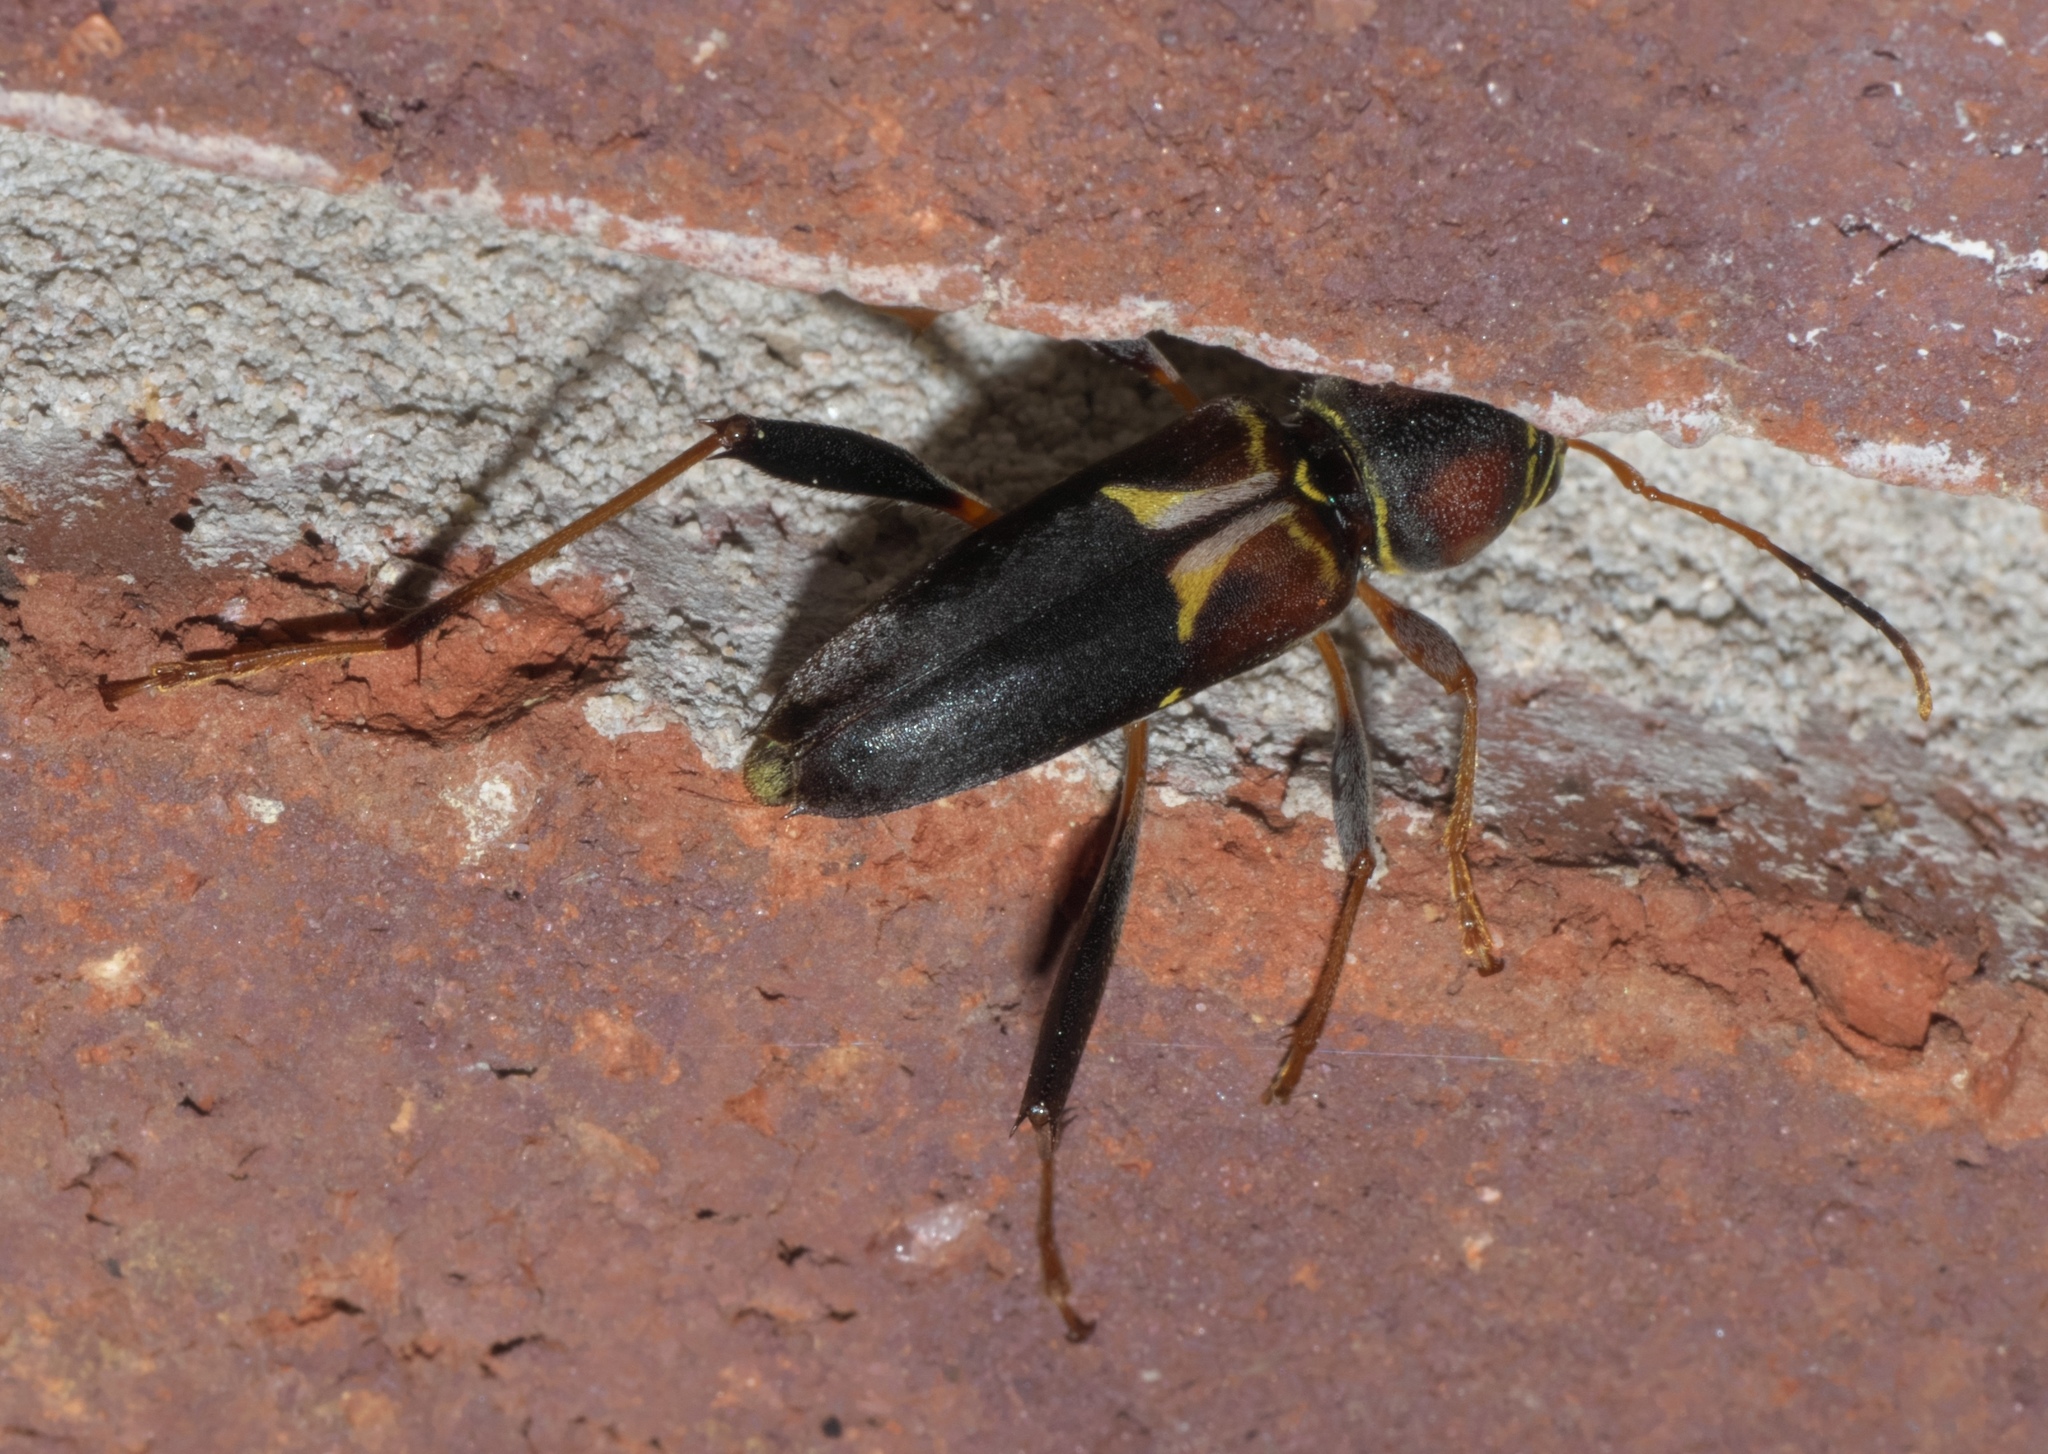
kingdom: Animalia
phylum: Arthropoda
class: Insecta
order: Coleoptera
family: Cerambycidae
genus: Neoclytus
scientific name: Neoclytus mucronatus
